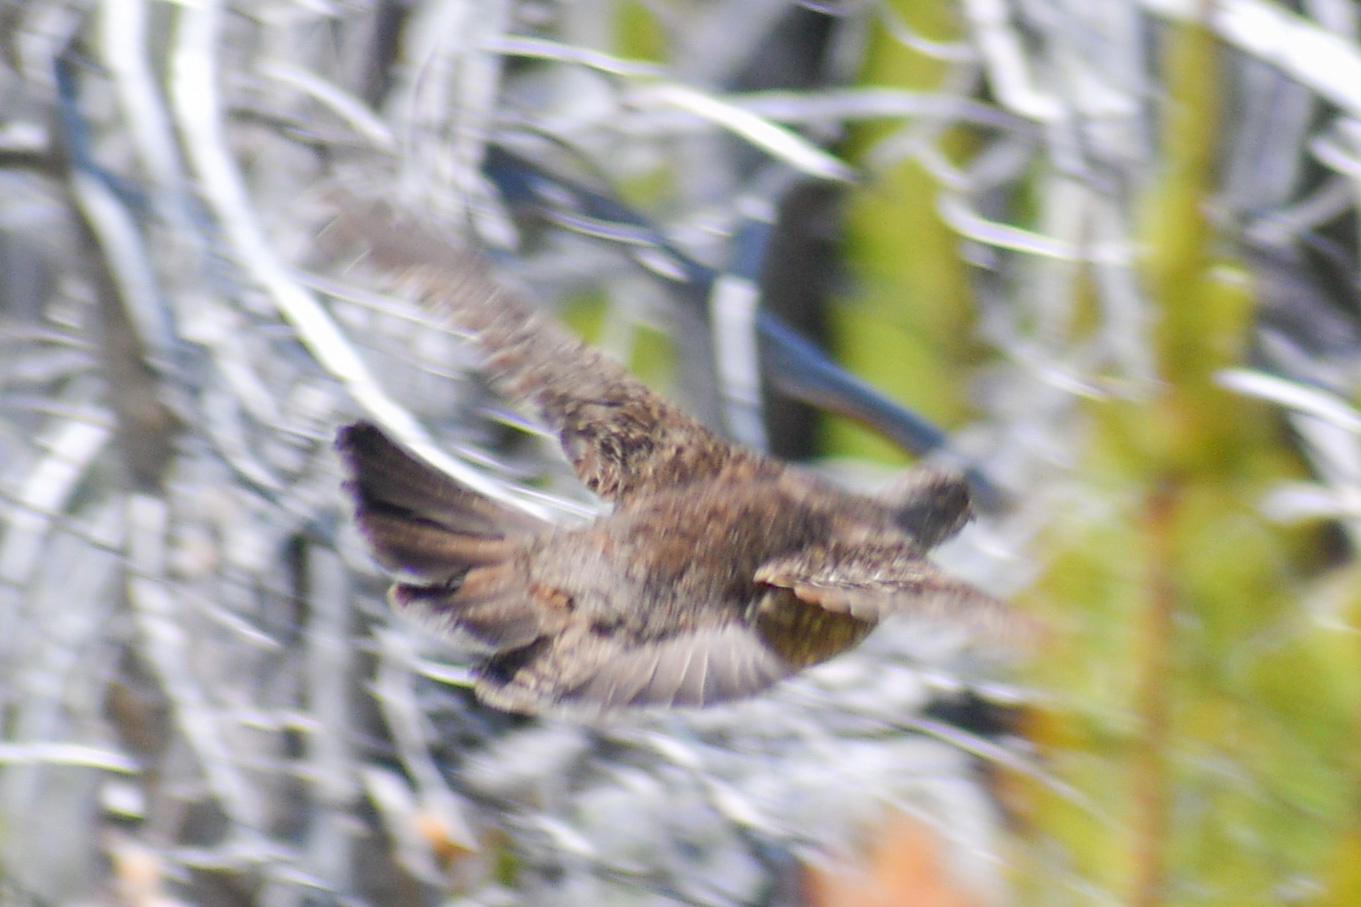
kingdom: Animalia
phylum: Chordata
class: Aves
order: Galliformes
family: Phasianidae
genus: Dendragapus
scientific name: Dendragapus obscurus
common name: Dusky grouse
